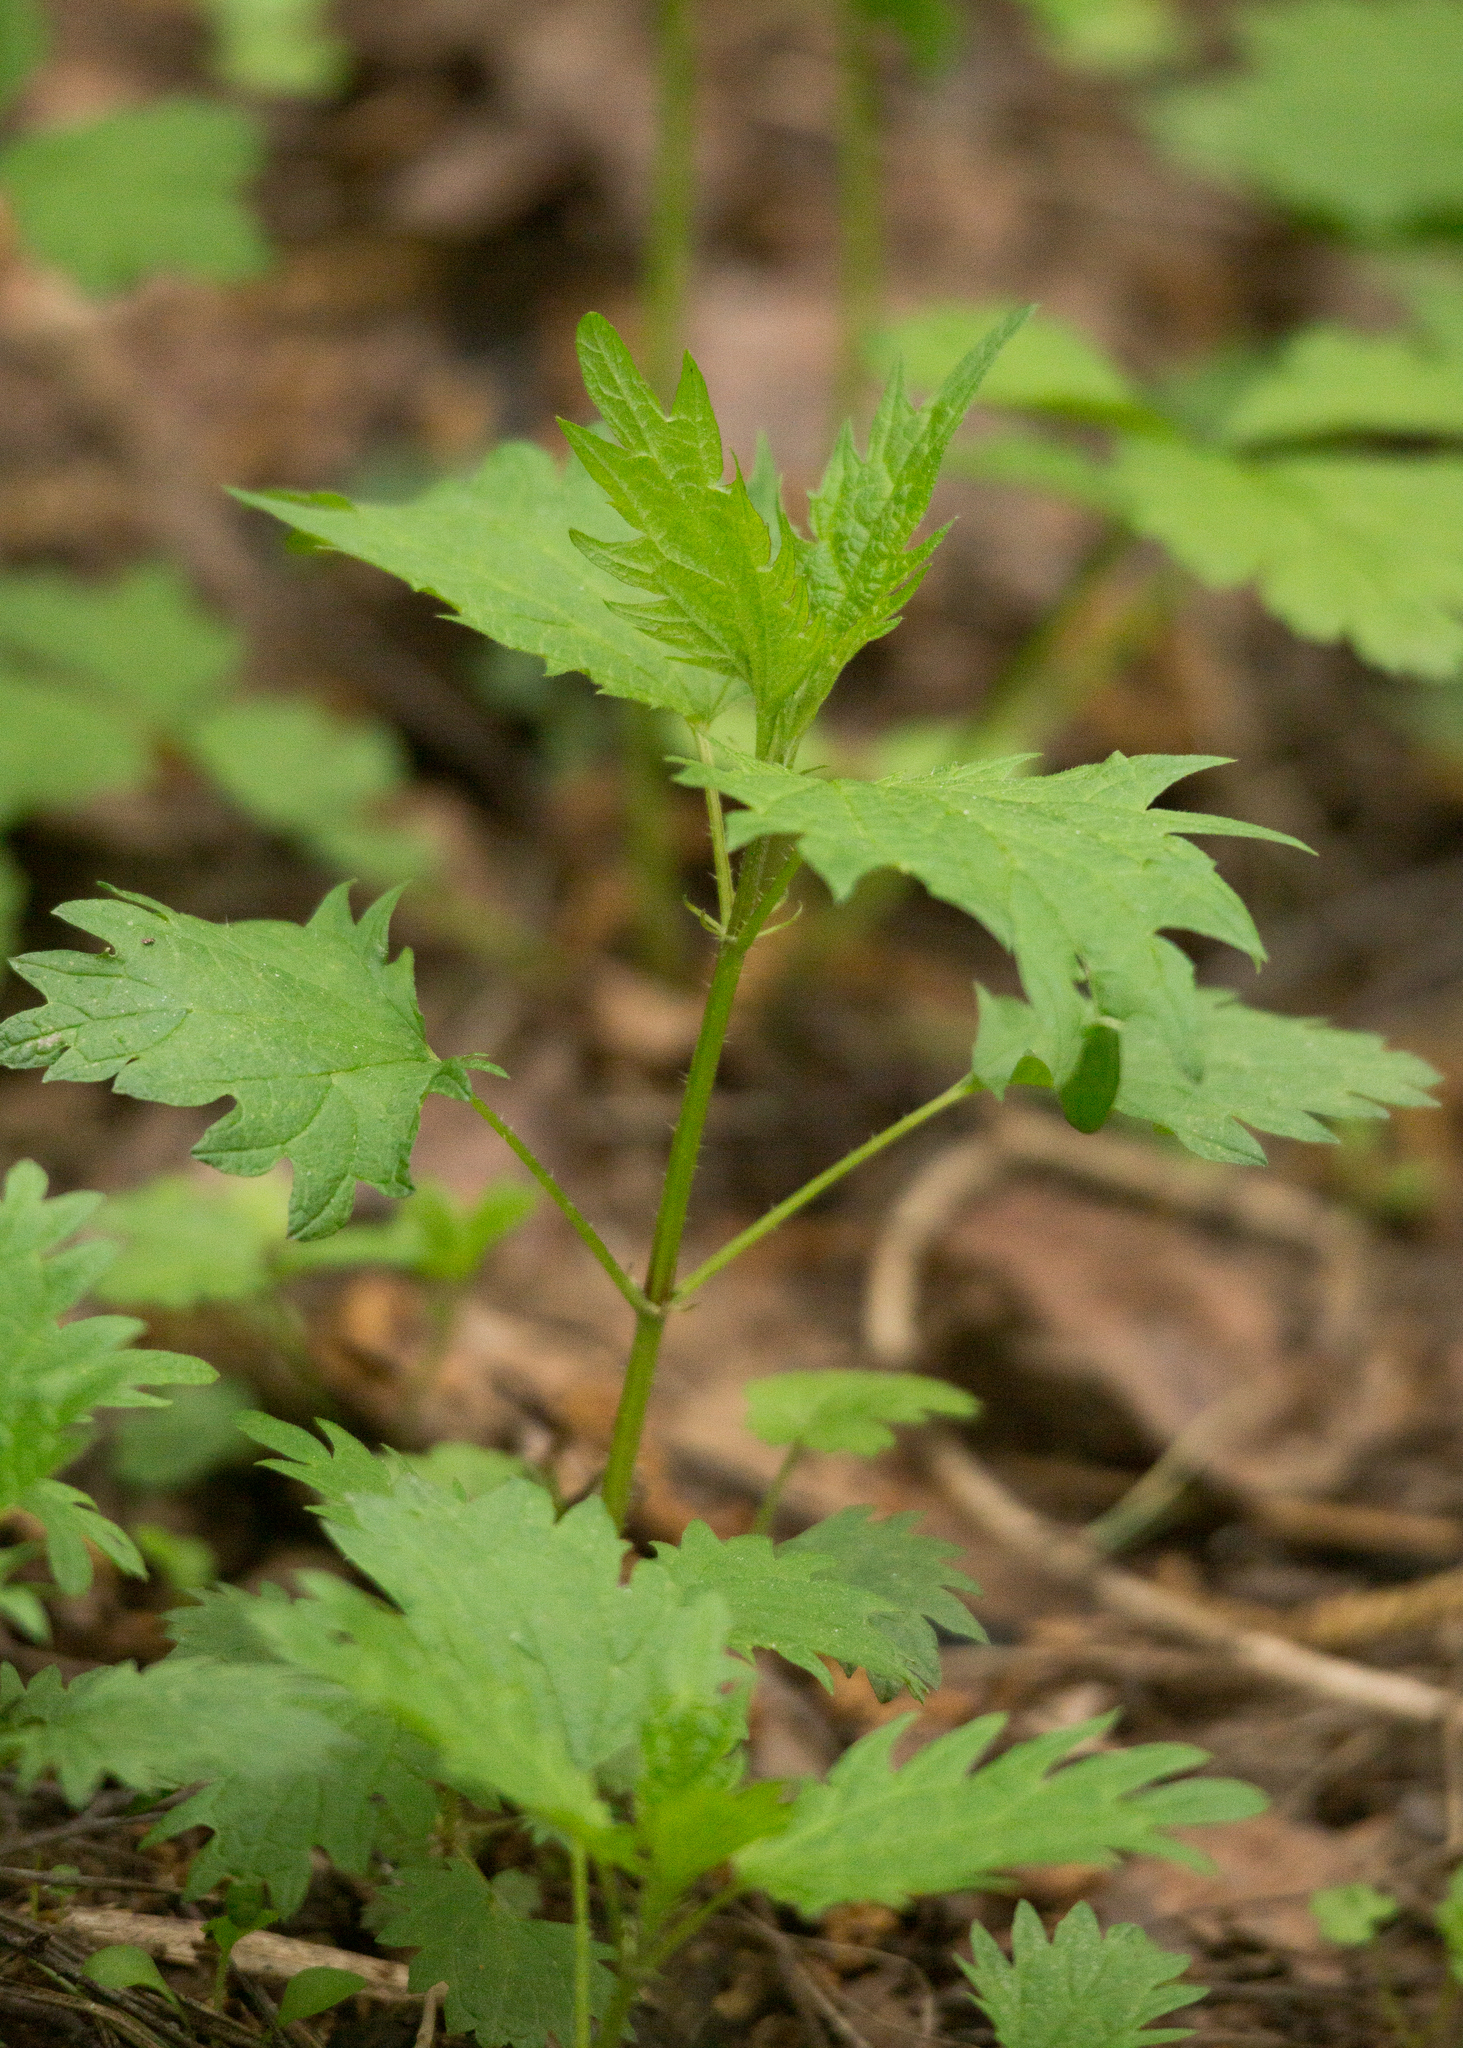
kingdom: Plantae
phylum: Tracheophyta
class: Magnoliopsida
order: Rosales
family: Urticaceae
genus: Urtica
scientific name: Urtica dioica
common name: Common nettle
